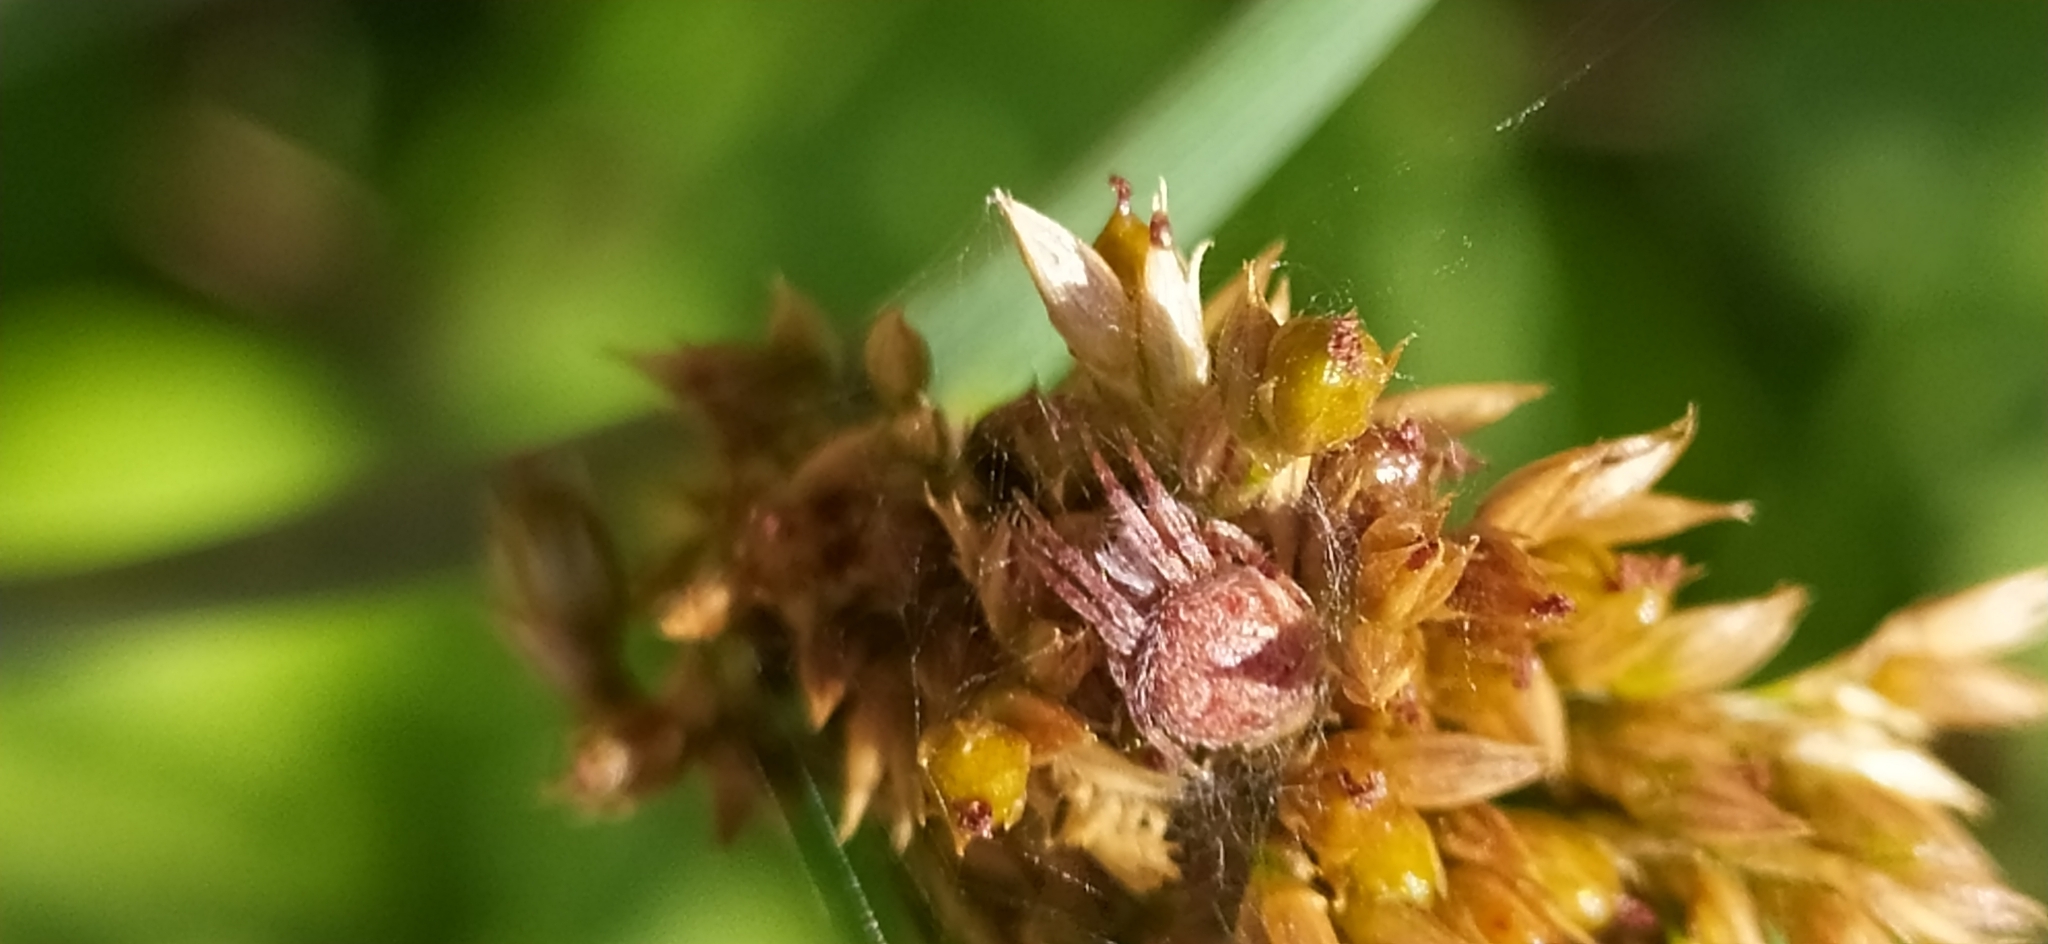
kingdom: Animalia
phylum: Arthropoda
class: Arachnida
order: Araneae
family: Araneidae
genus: Agalenatea
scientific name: Agalenatea redii
